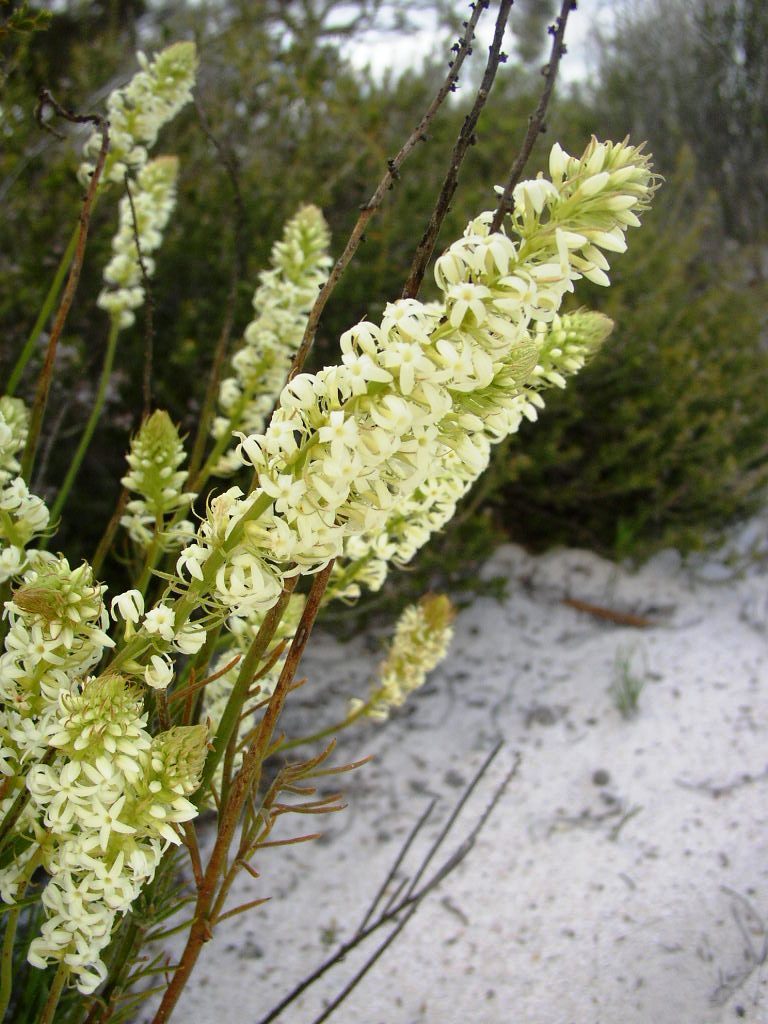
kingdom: Plantae
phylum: Tracheophyta
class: Magnoliopsida
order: Celastrales
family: Celastraceae
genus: Stackhousia
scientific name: Stackhousia monogyna
